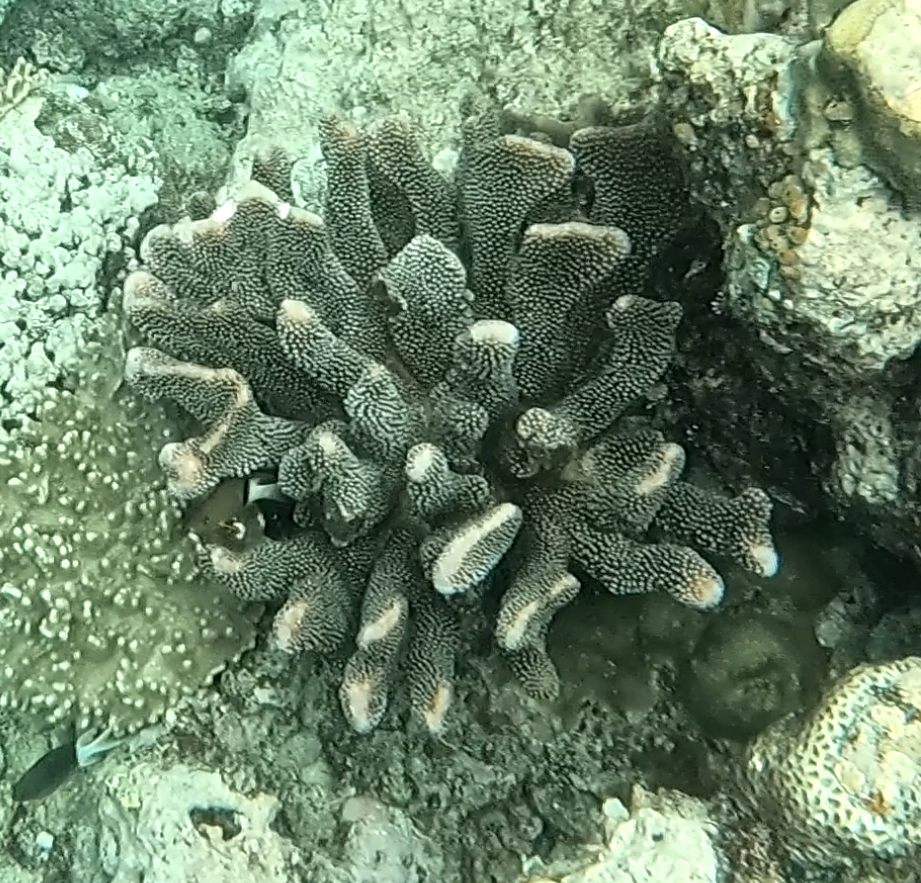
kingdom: Animalia
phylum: Cnidaria
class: Anthozoa
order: Scleractinia
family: Pocilloporidae
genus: Pocillopora
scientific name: Pocillopora grandis
